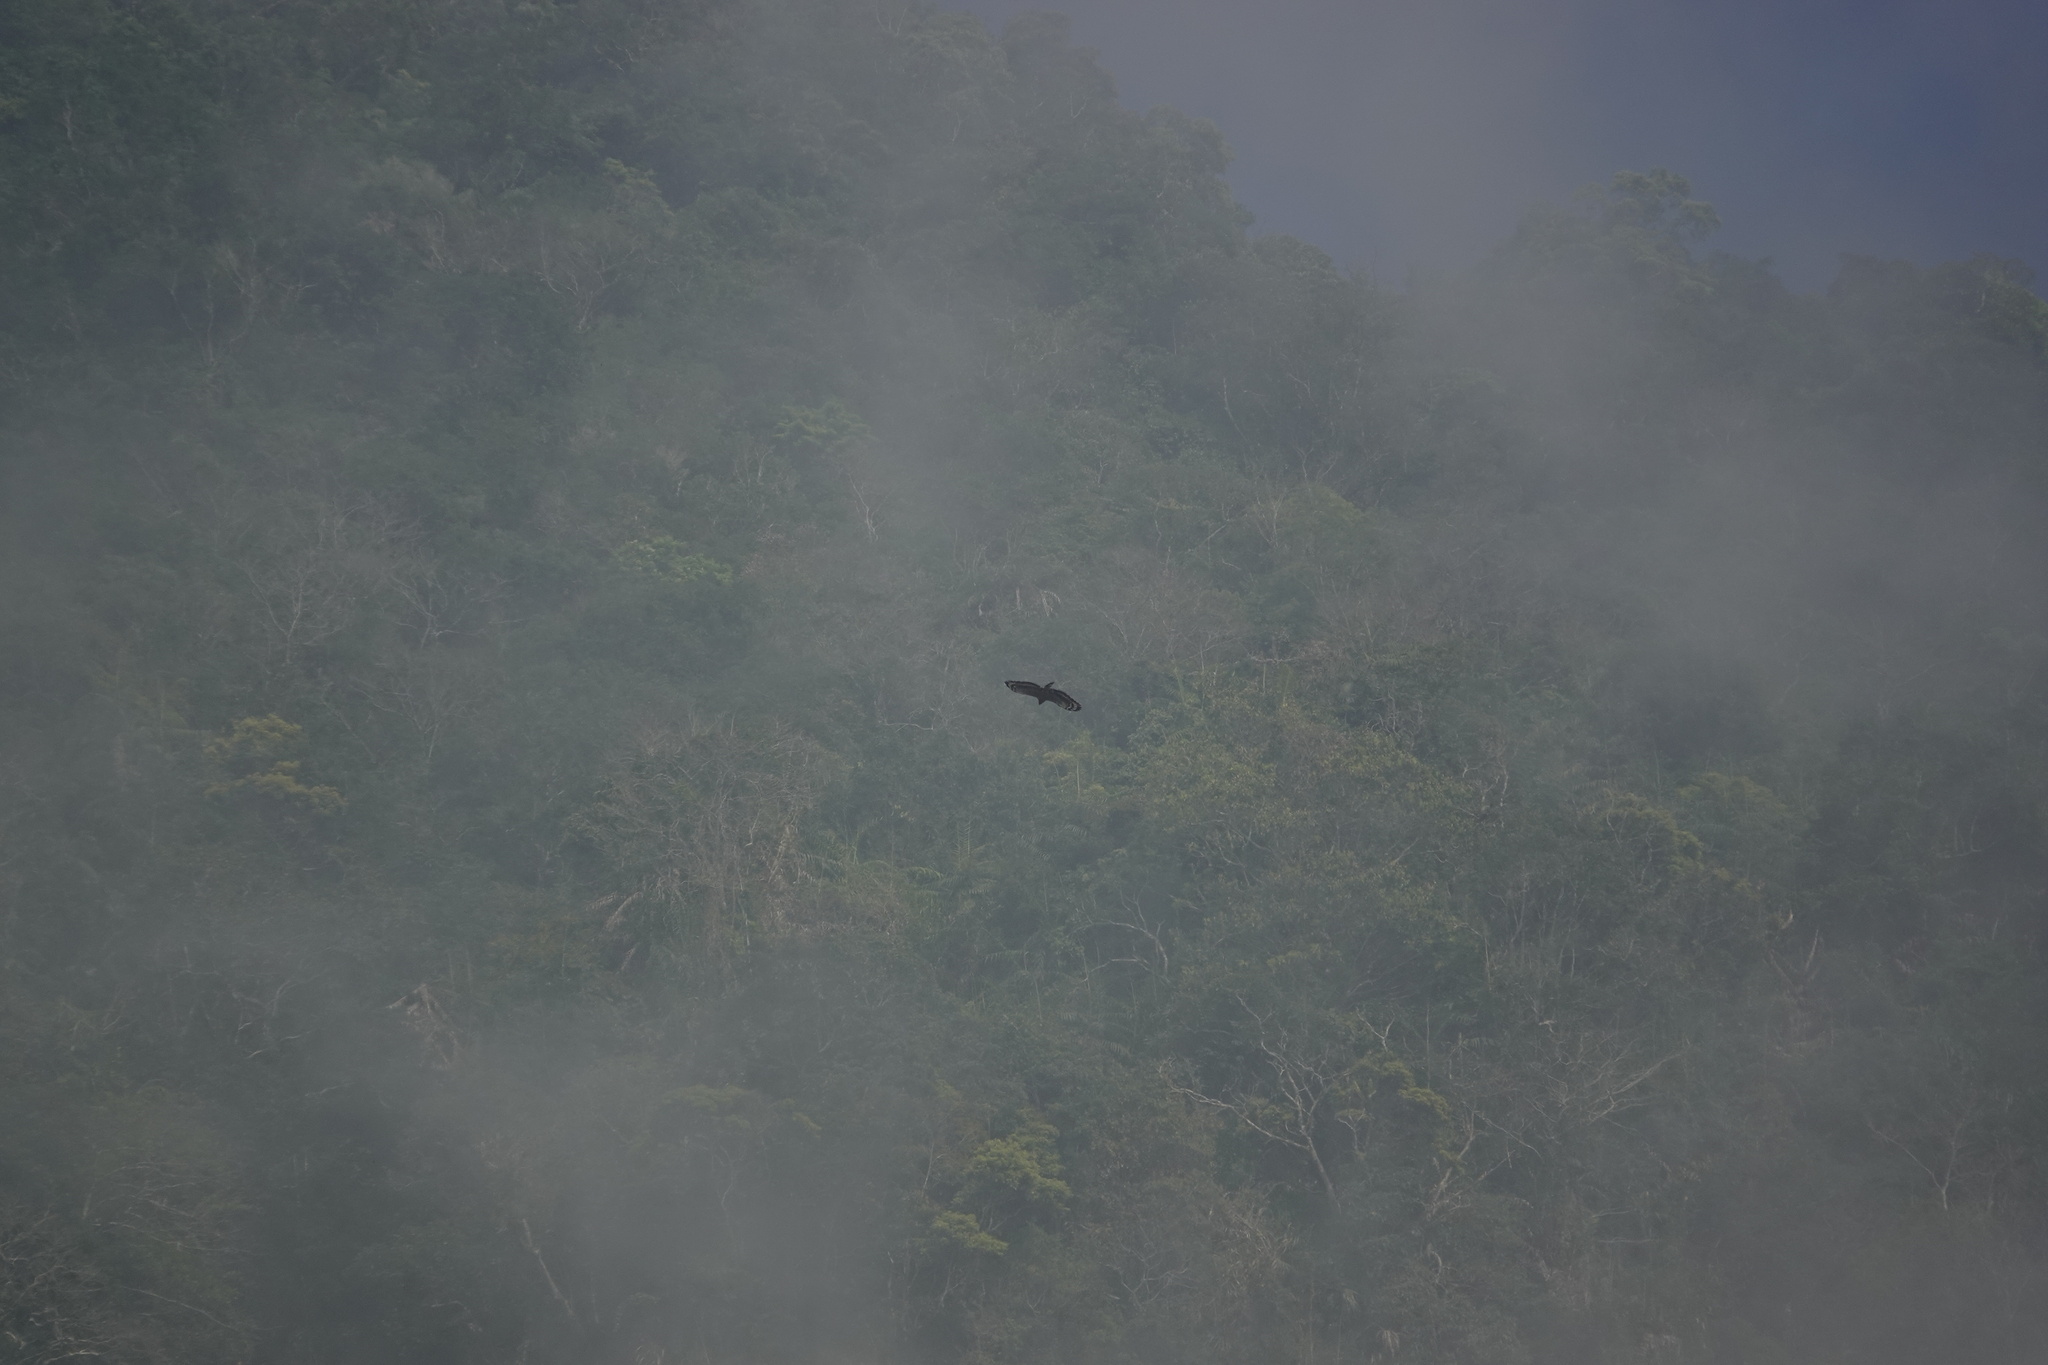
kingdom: Animalia
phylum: Chordata
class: Aves
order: Accipitriformes
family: Accipitridae
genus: Spilornis
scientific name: Spilornis cheela
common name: Crested serpent eagle
